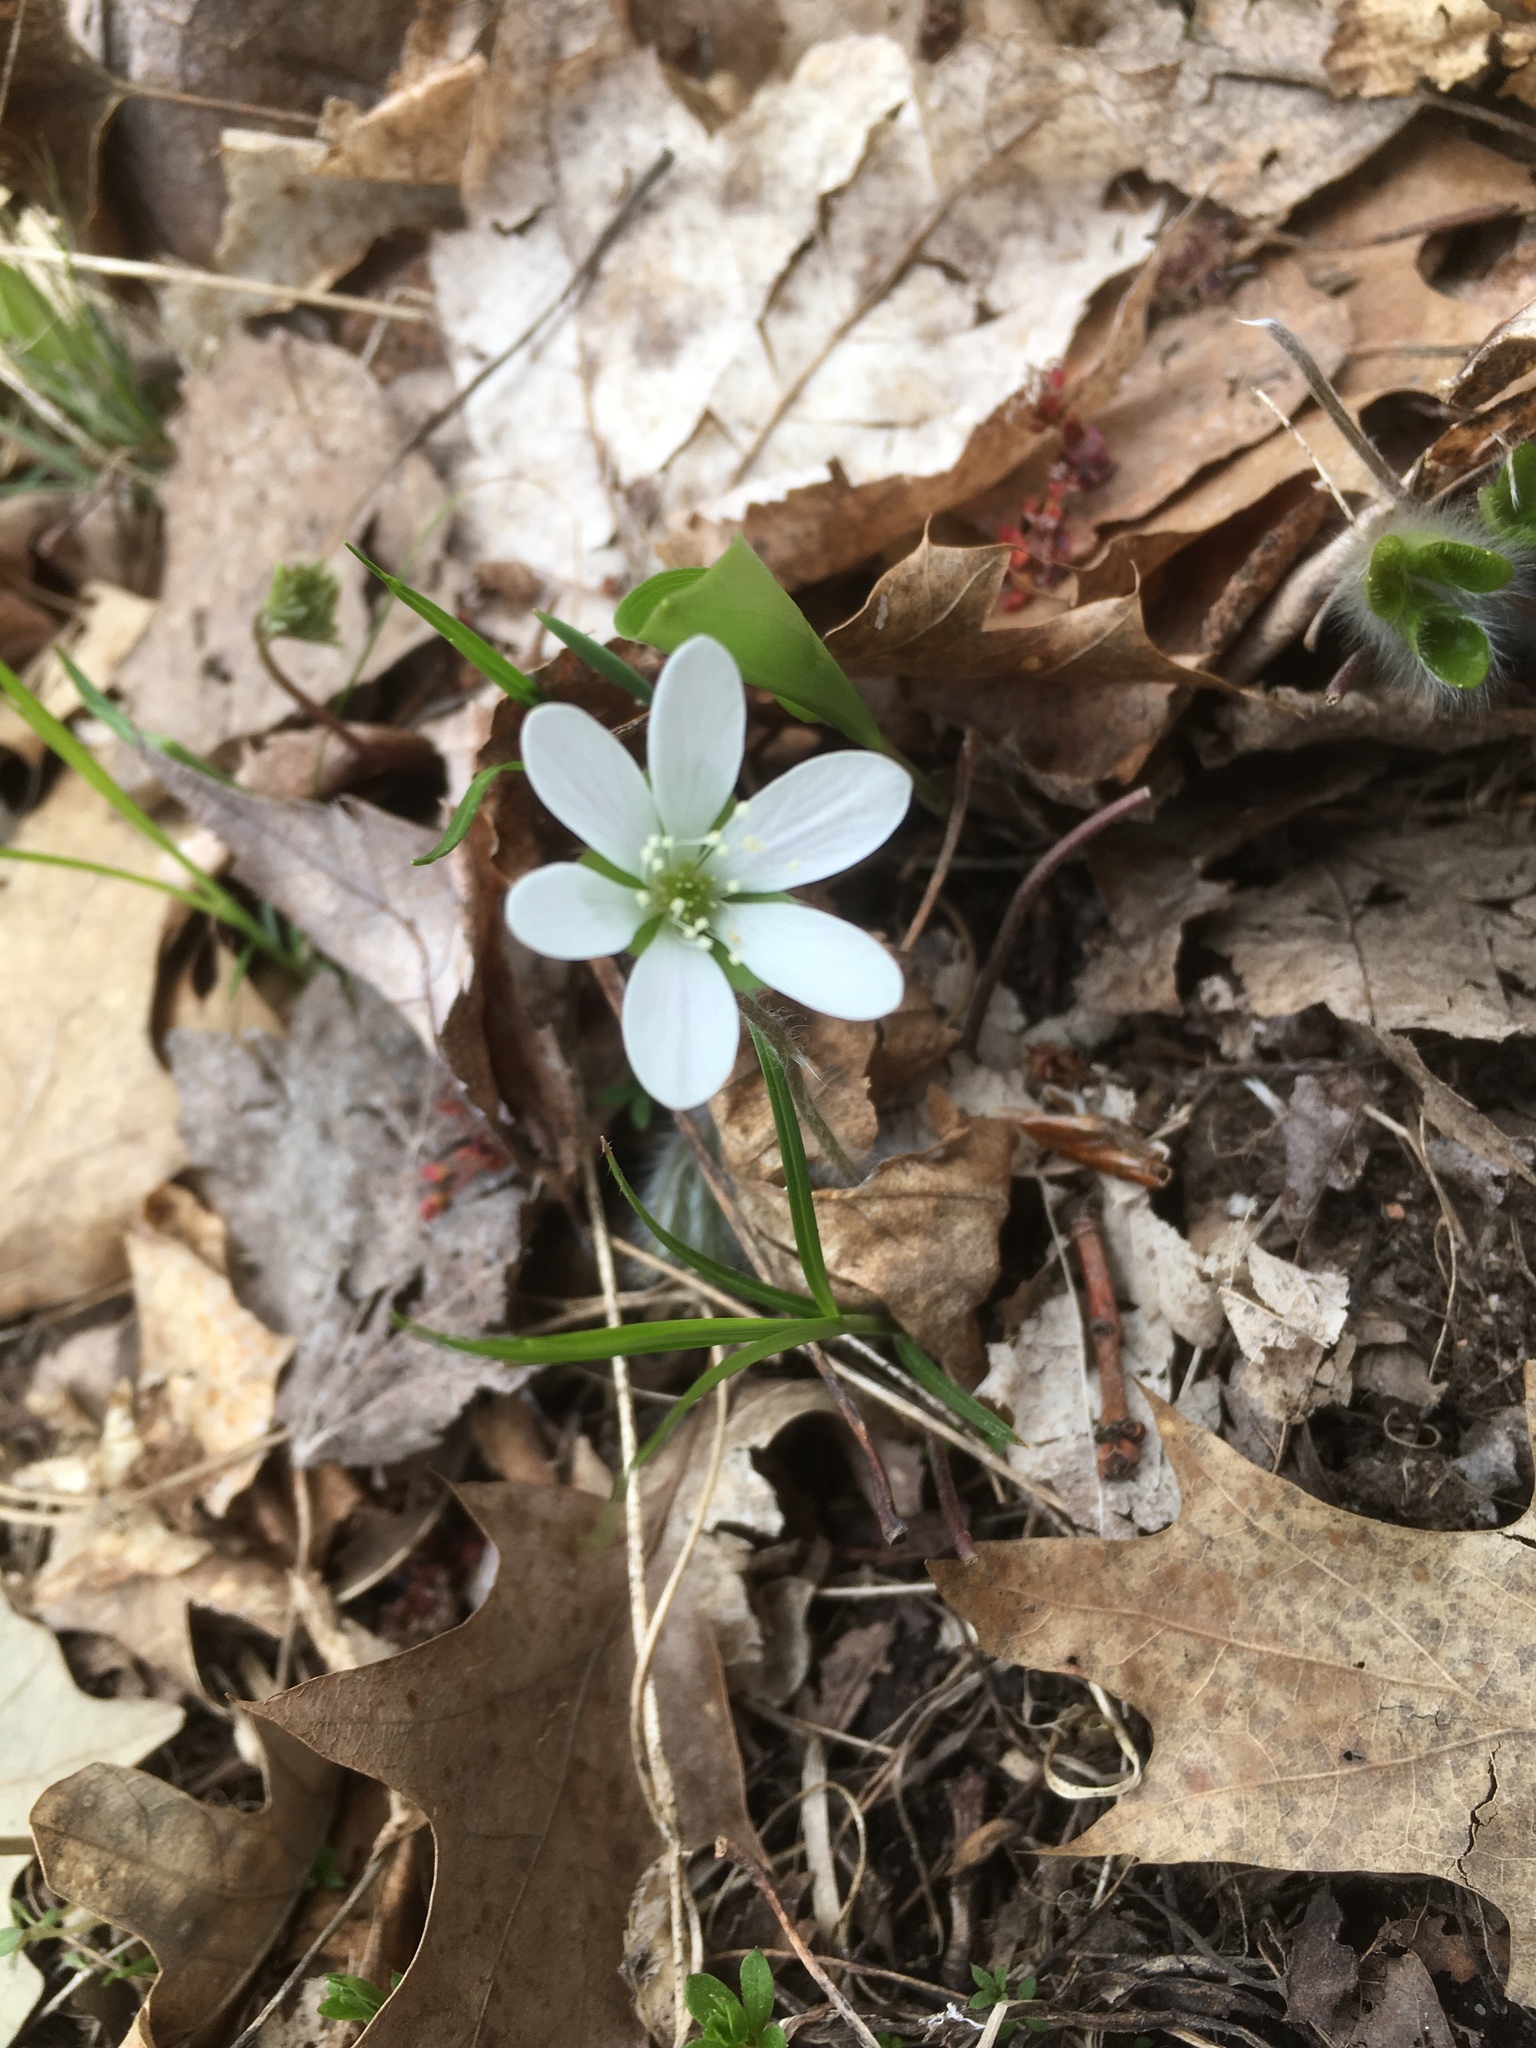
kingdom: Plantae
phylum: Tracheophyta
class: Magnoliopsida
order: Ranunculales
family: Ranunculaceae
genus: Hepatica
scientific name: Hepatica americana
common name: American hepatica
